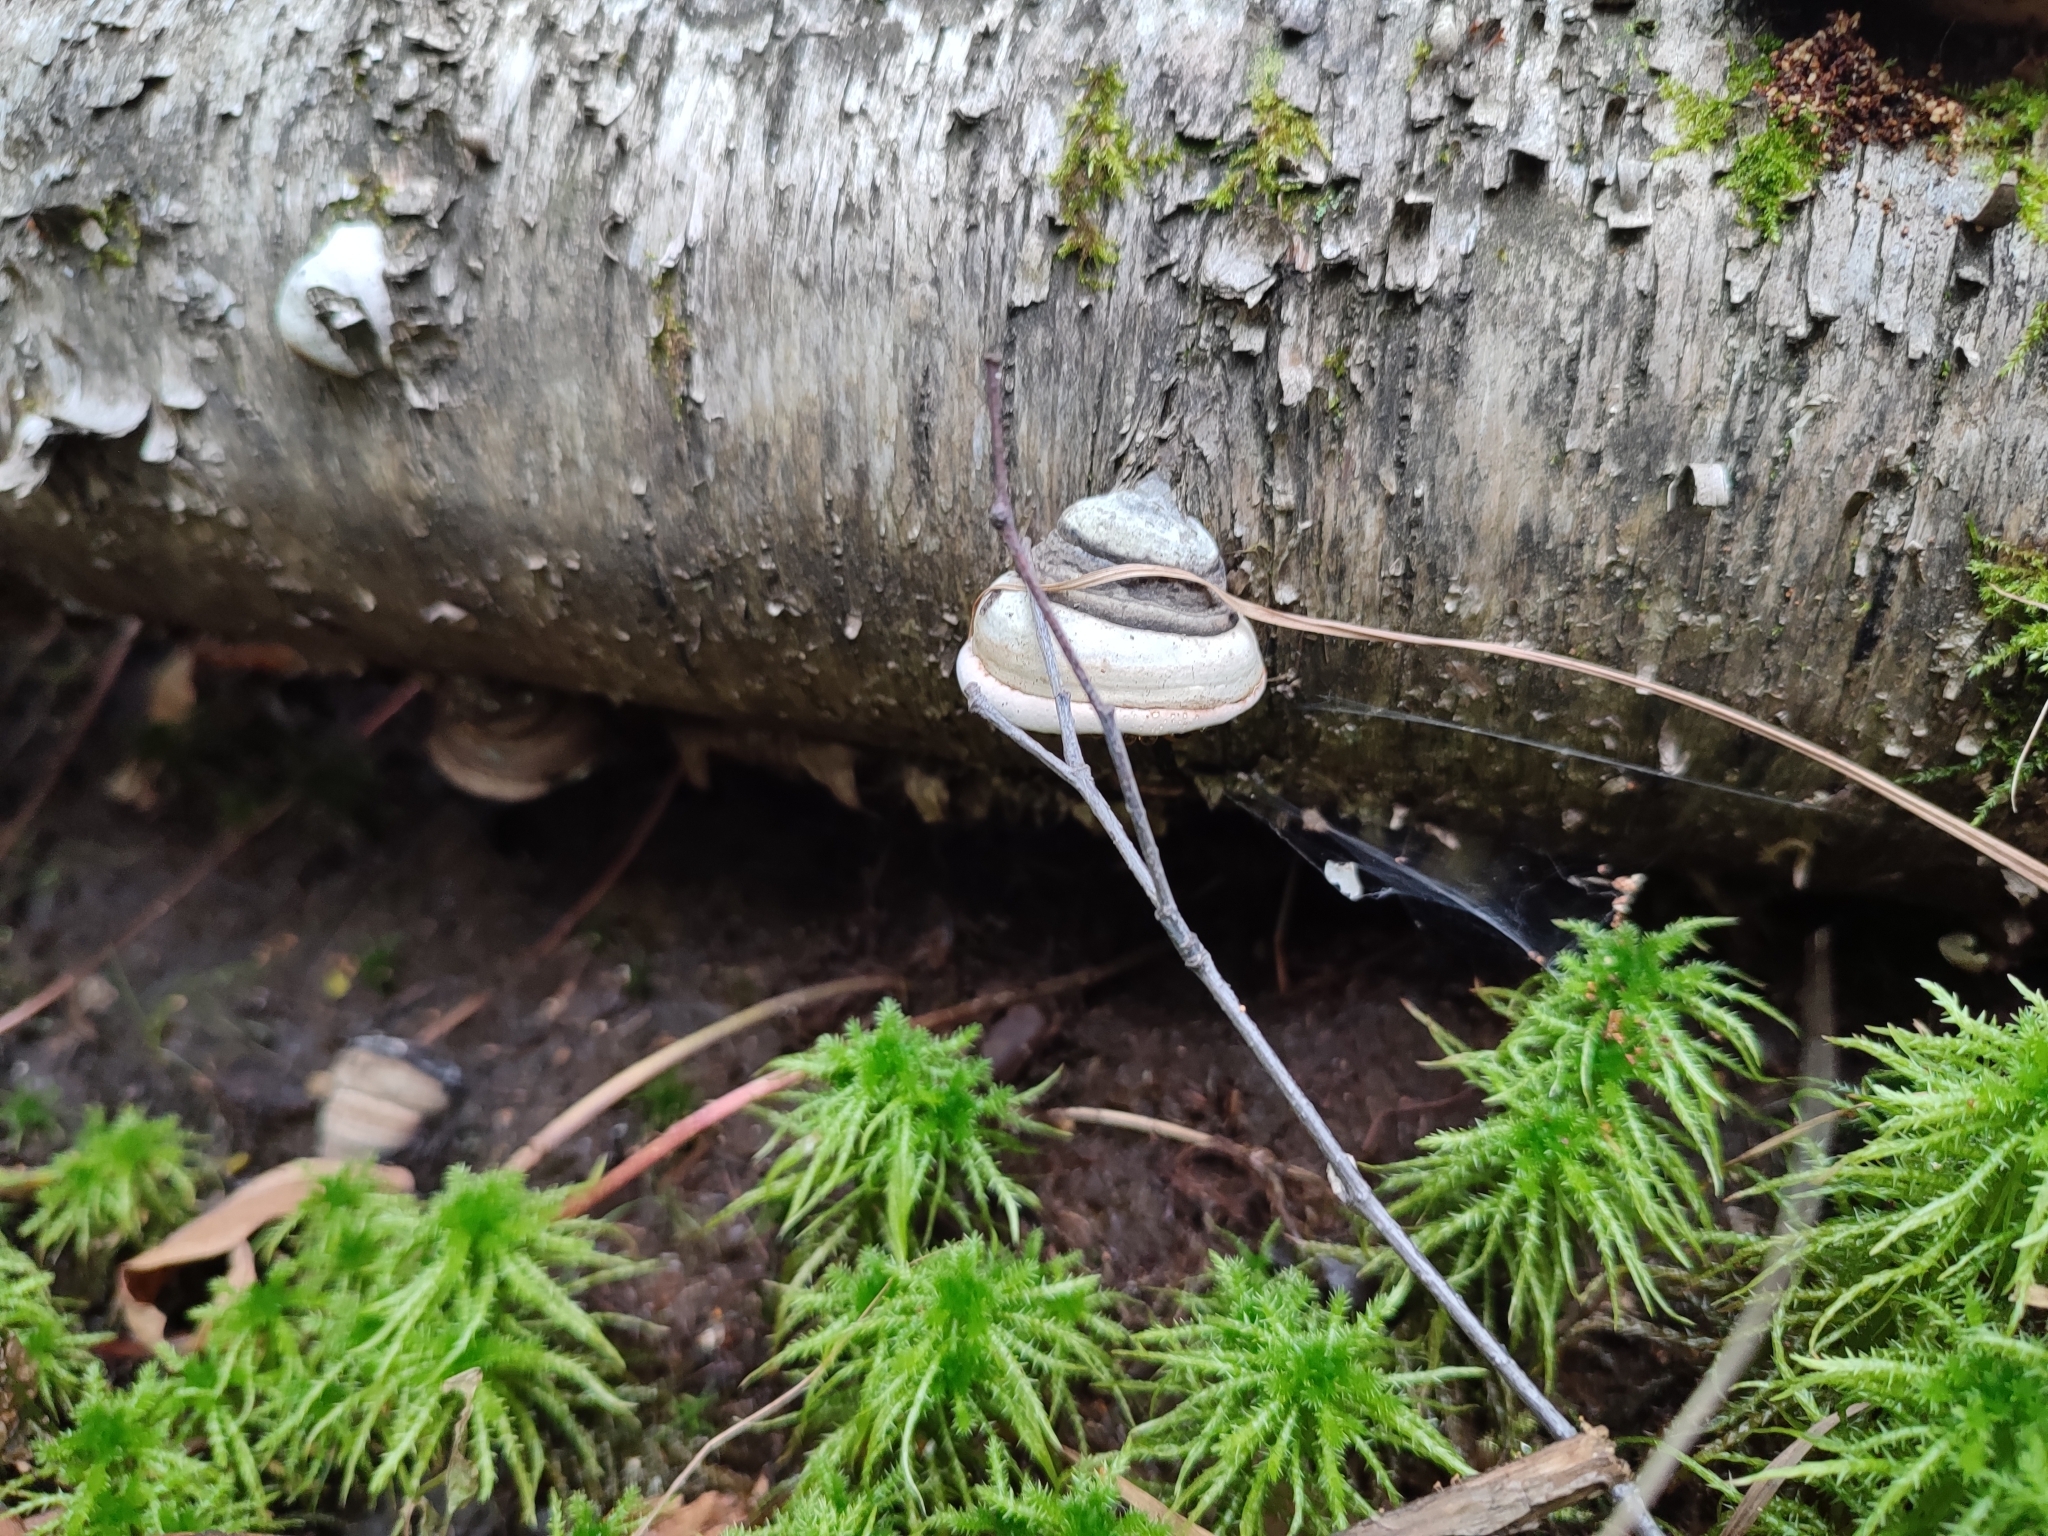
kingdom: Fungi
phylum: Basidiomycota
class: Agaricomycetes
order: Polyporales
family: Polyporaceae
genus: Fomes
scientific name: Fomes fomentarius
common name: Hoof fungus
